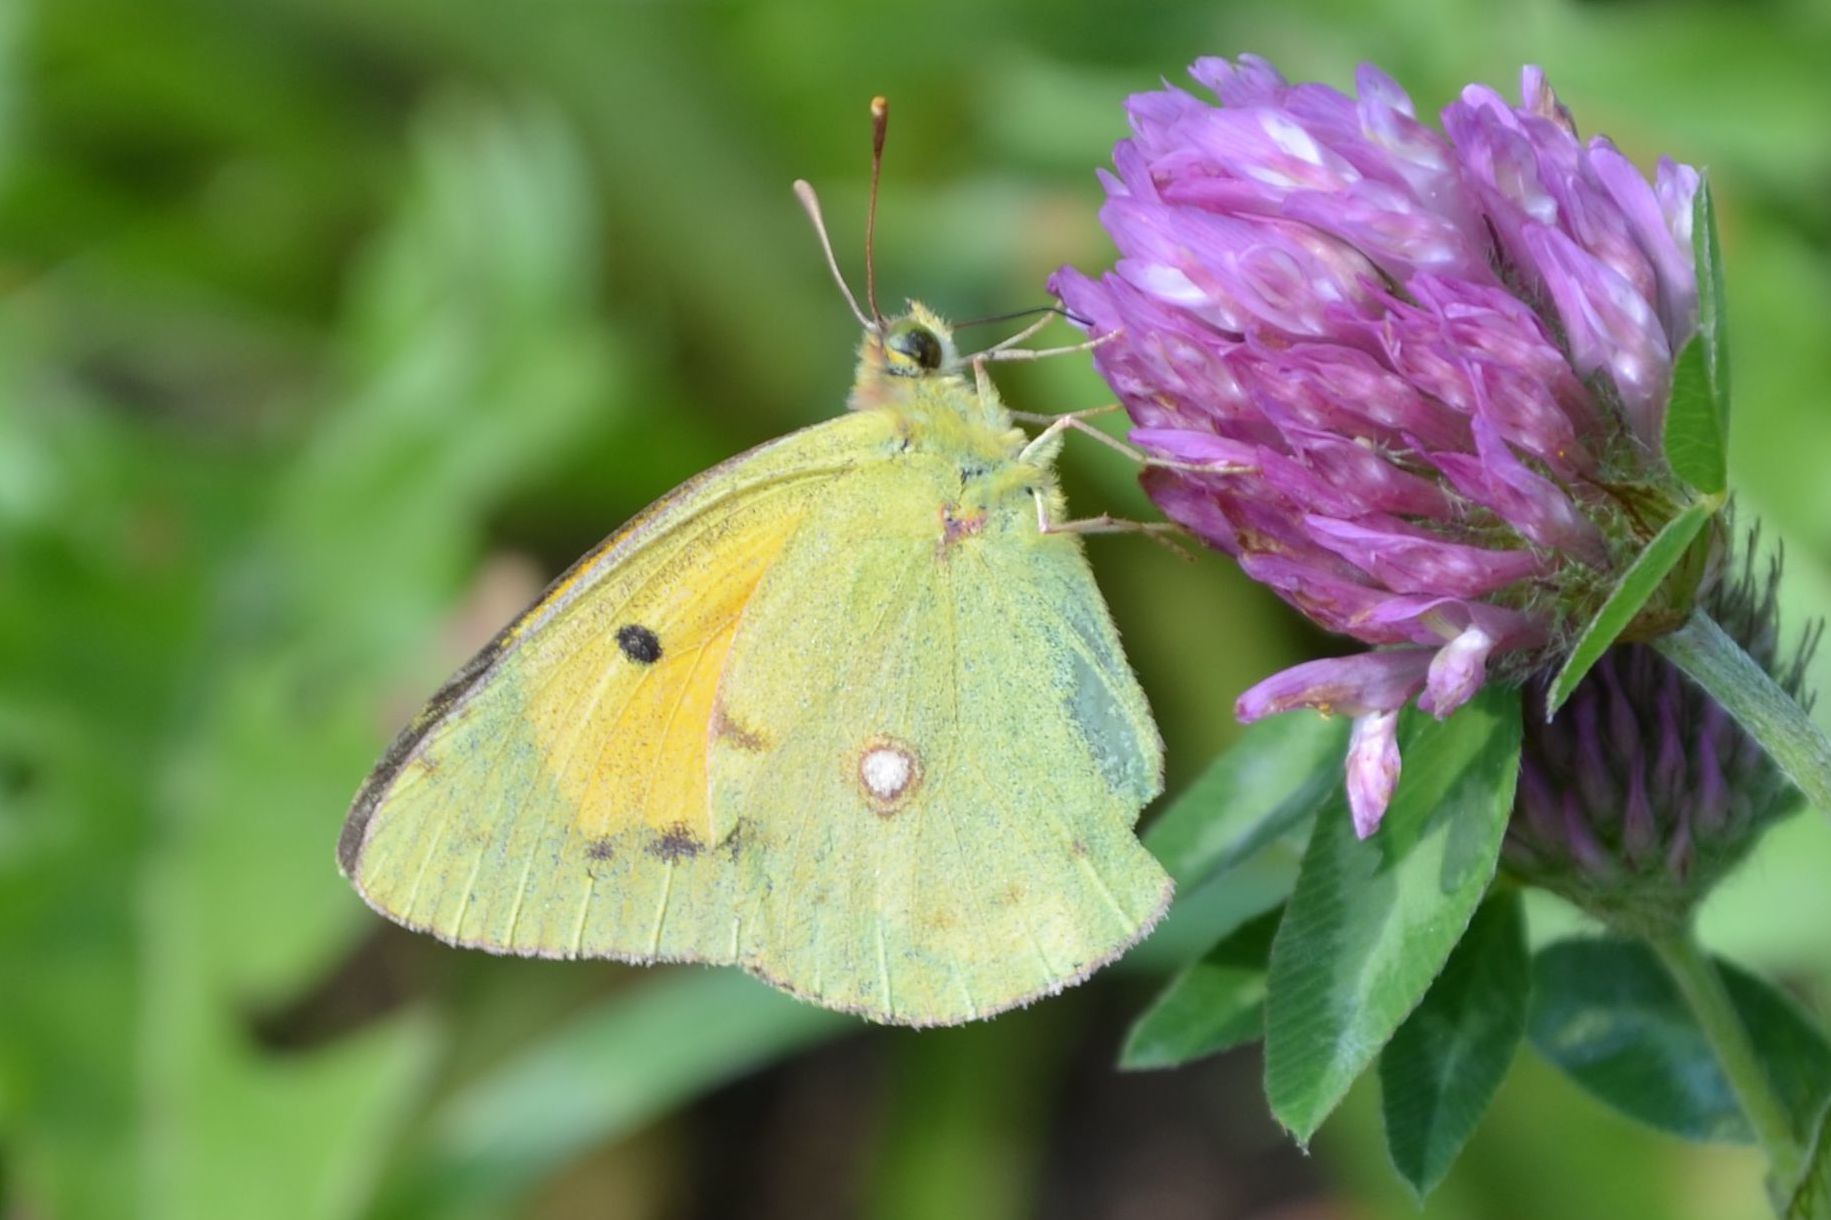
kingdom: Animalia
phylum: Arthropoda
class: Insecta
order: Lepidoptera
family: Pieridae
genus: Colias
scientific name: Colias croceus
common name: Clouded yellow
